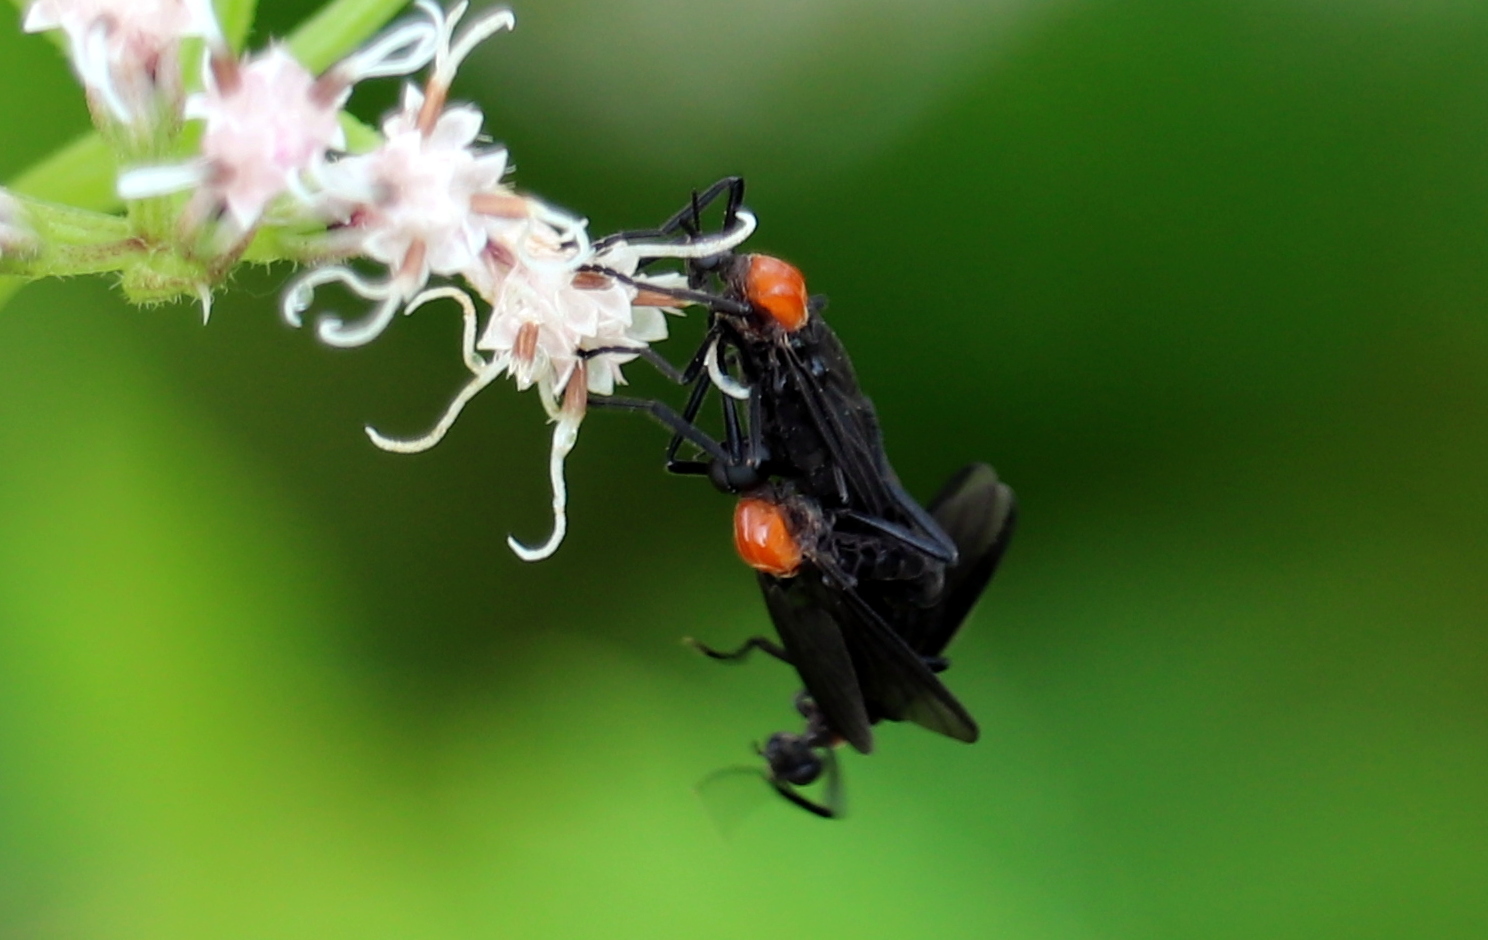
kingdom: Animalia
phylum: Arthropoda
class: Insecta
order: Diptera
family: Bibionidae
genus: Plecia
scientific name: Plecia nearctica
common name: March fly
